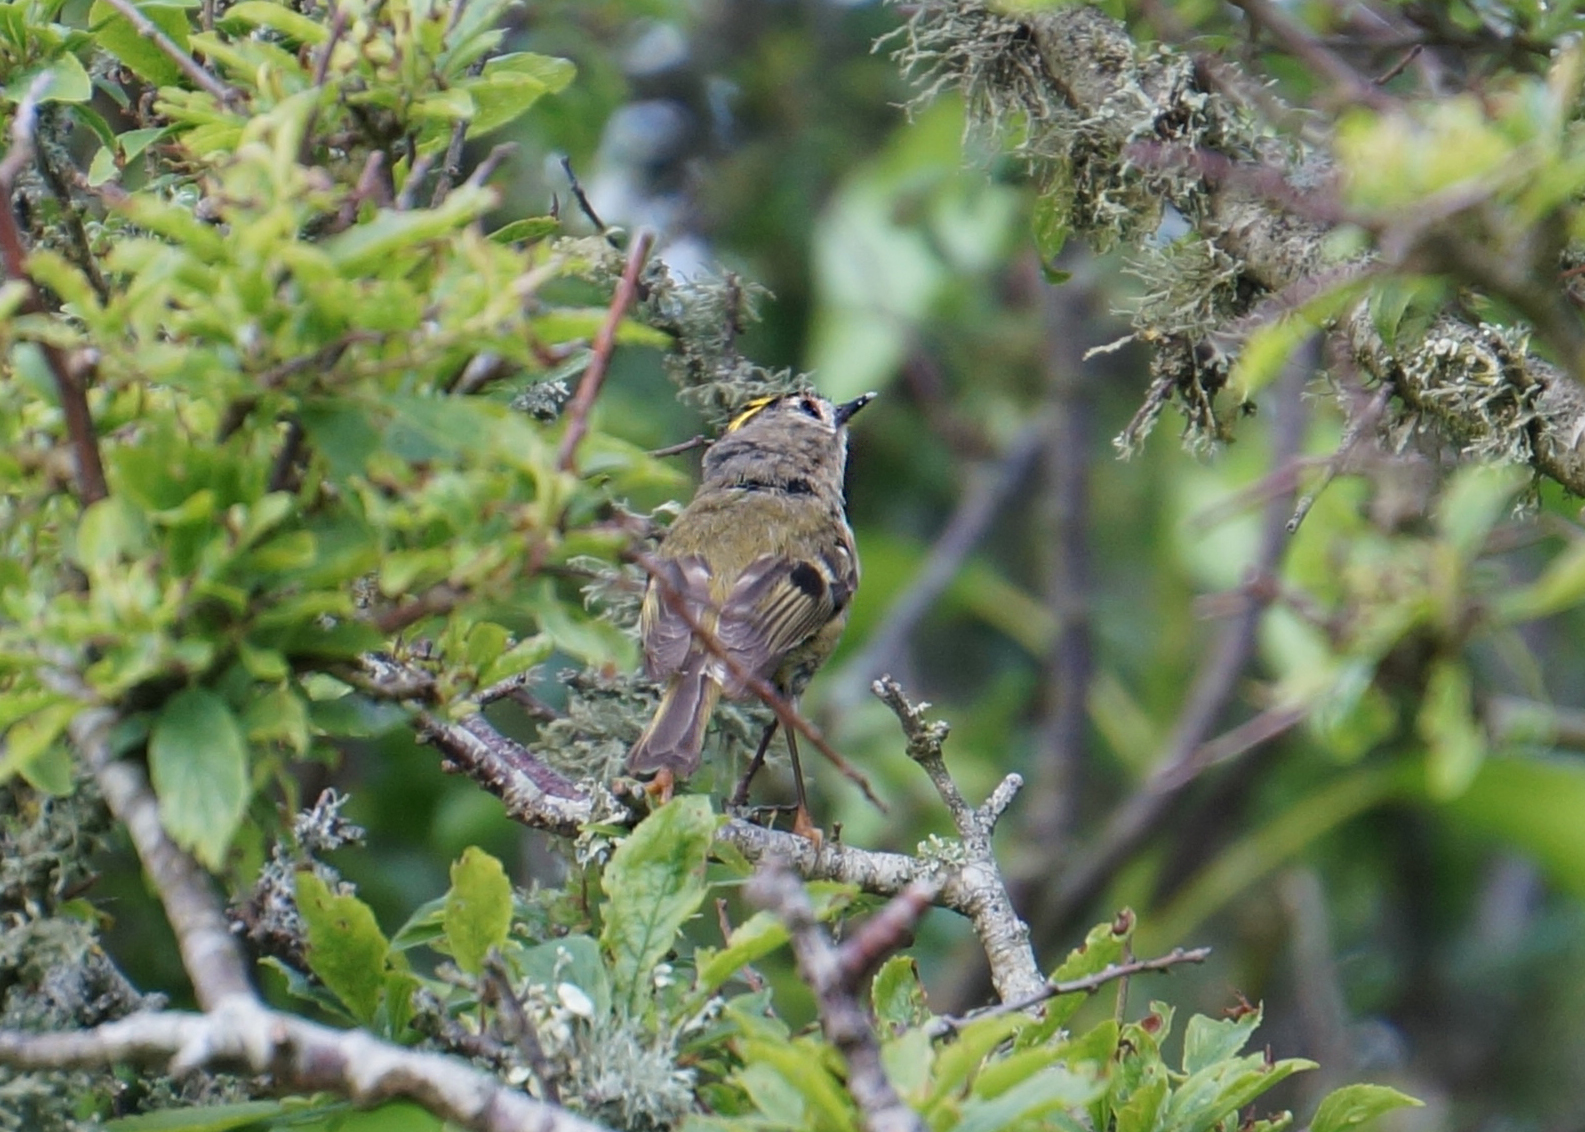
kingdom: Animalia
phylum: Chordata
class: Aves
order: Passeriformes
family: Regulidae
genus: Regulus
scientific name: Regulus regulus
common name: Goldcrest
